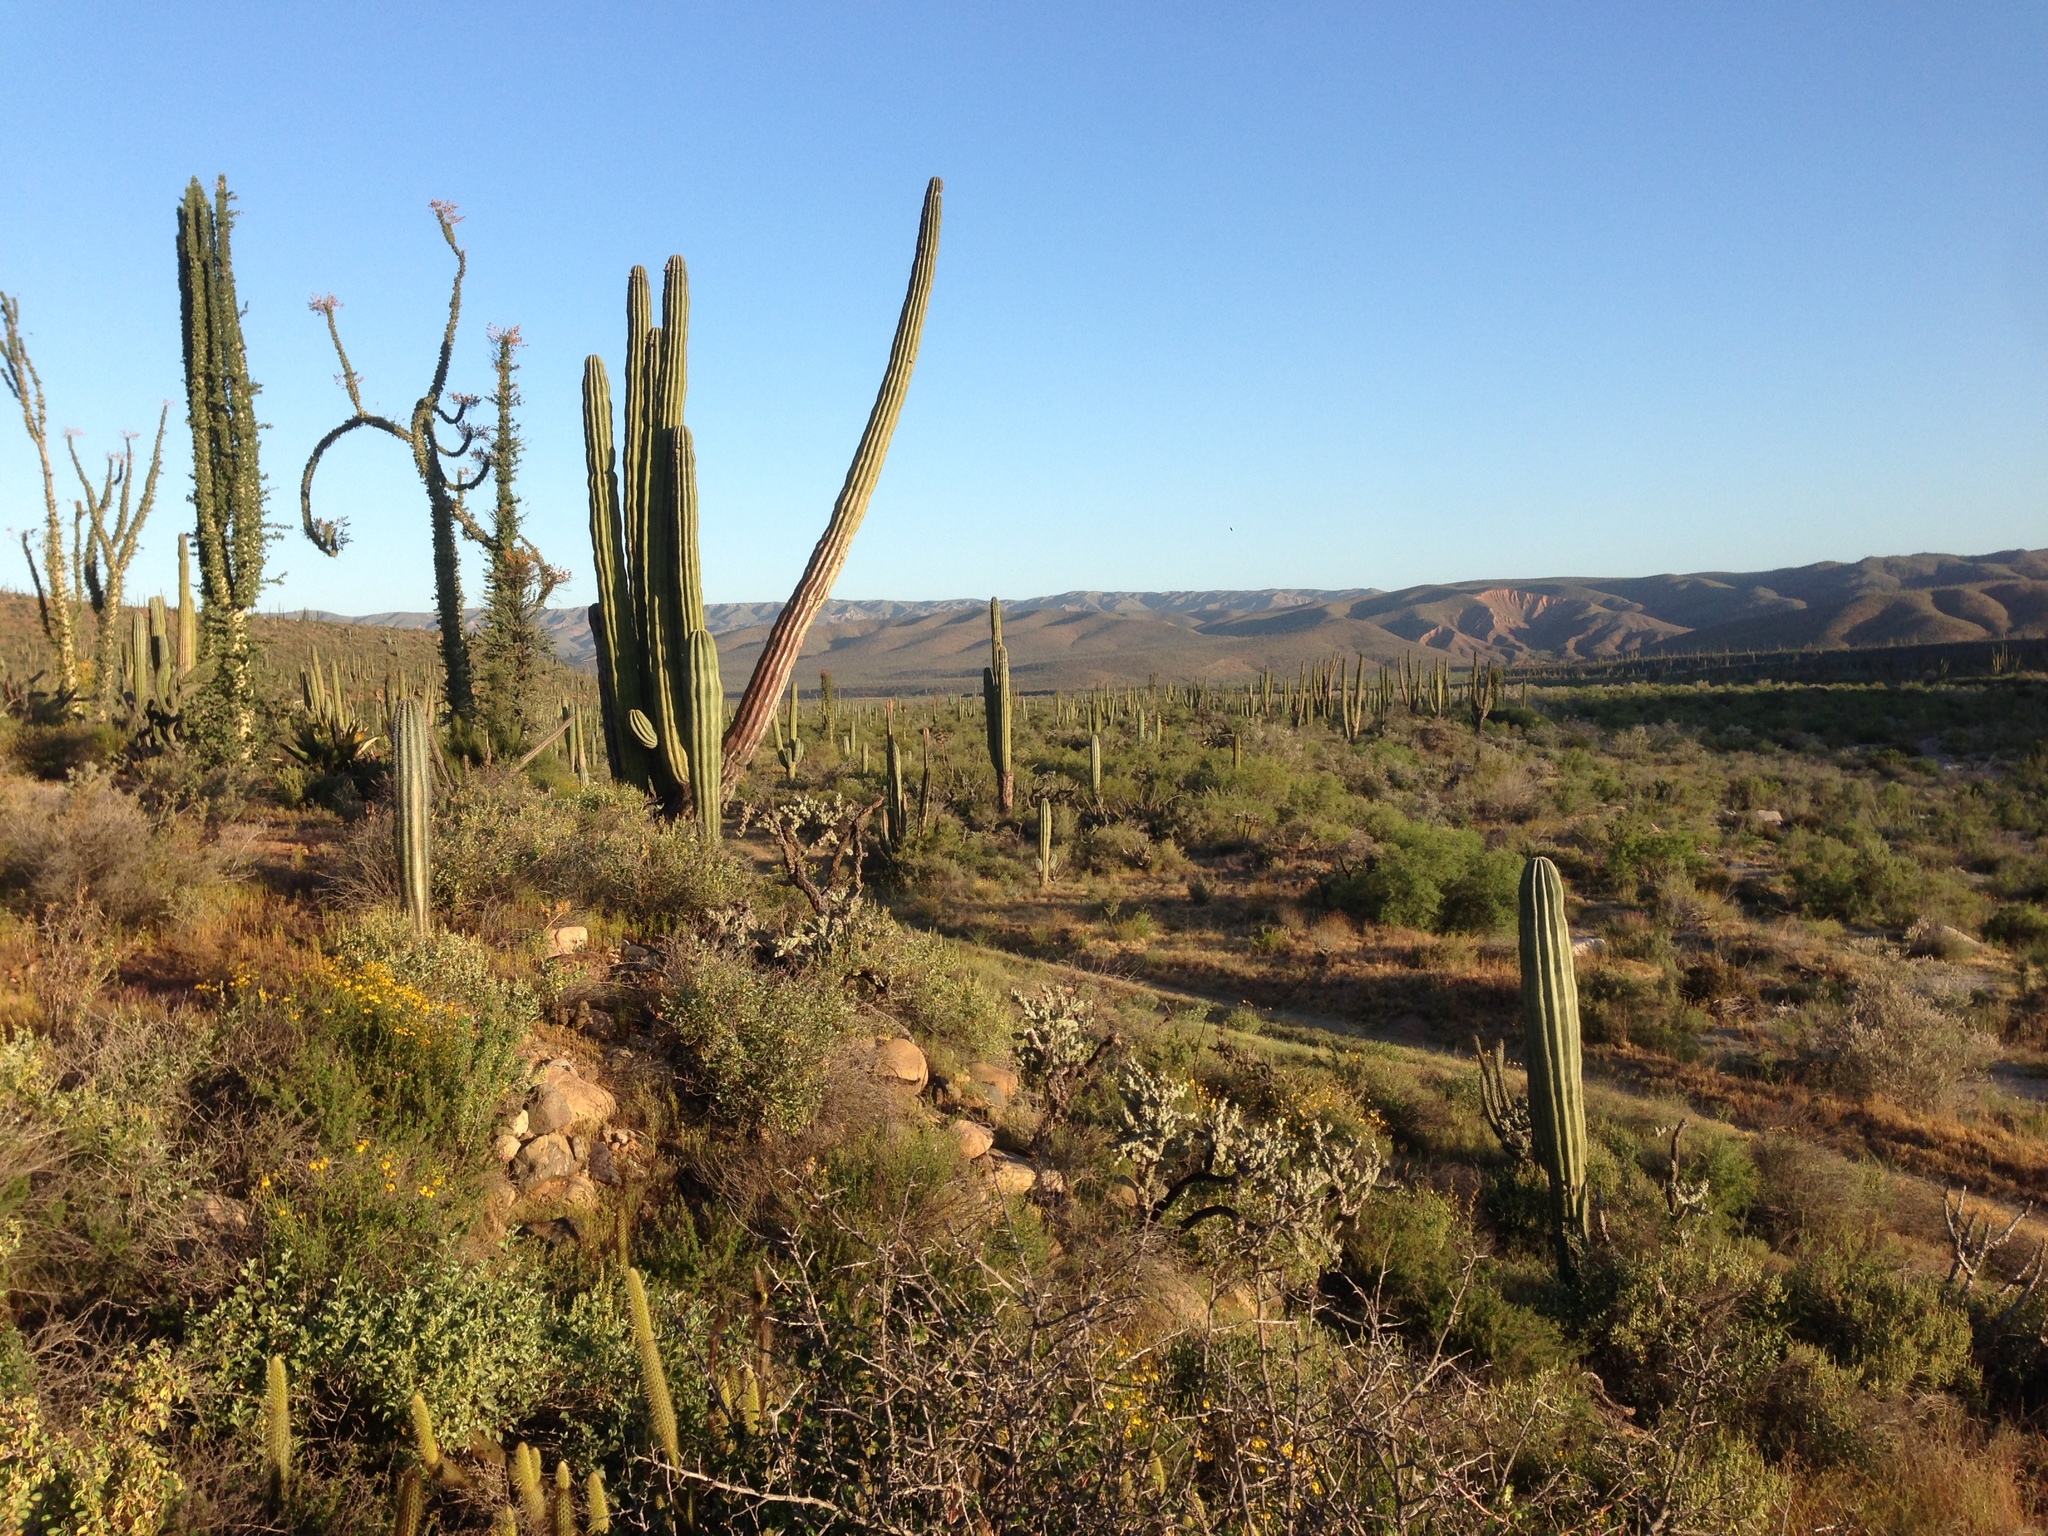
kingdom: Plantae
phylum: Tracheophyta
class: Magnoliopsida
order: Caryophyllales
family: Cactaceae
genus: Bergerocactus
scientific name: Bergerocactus emoryi
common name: Golden snakecactus
